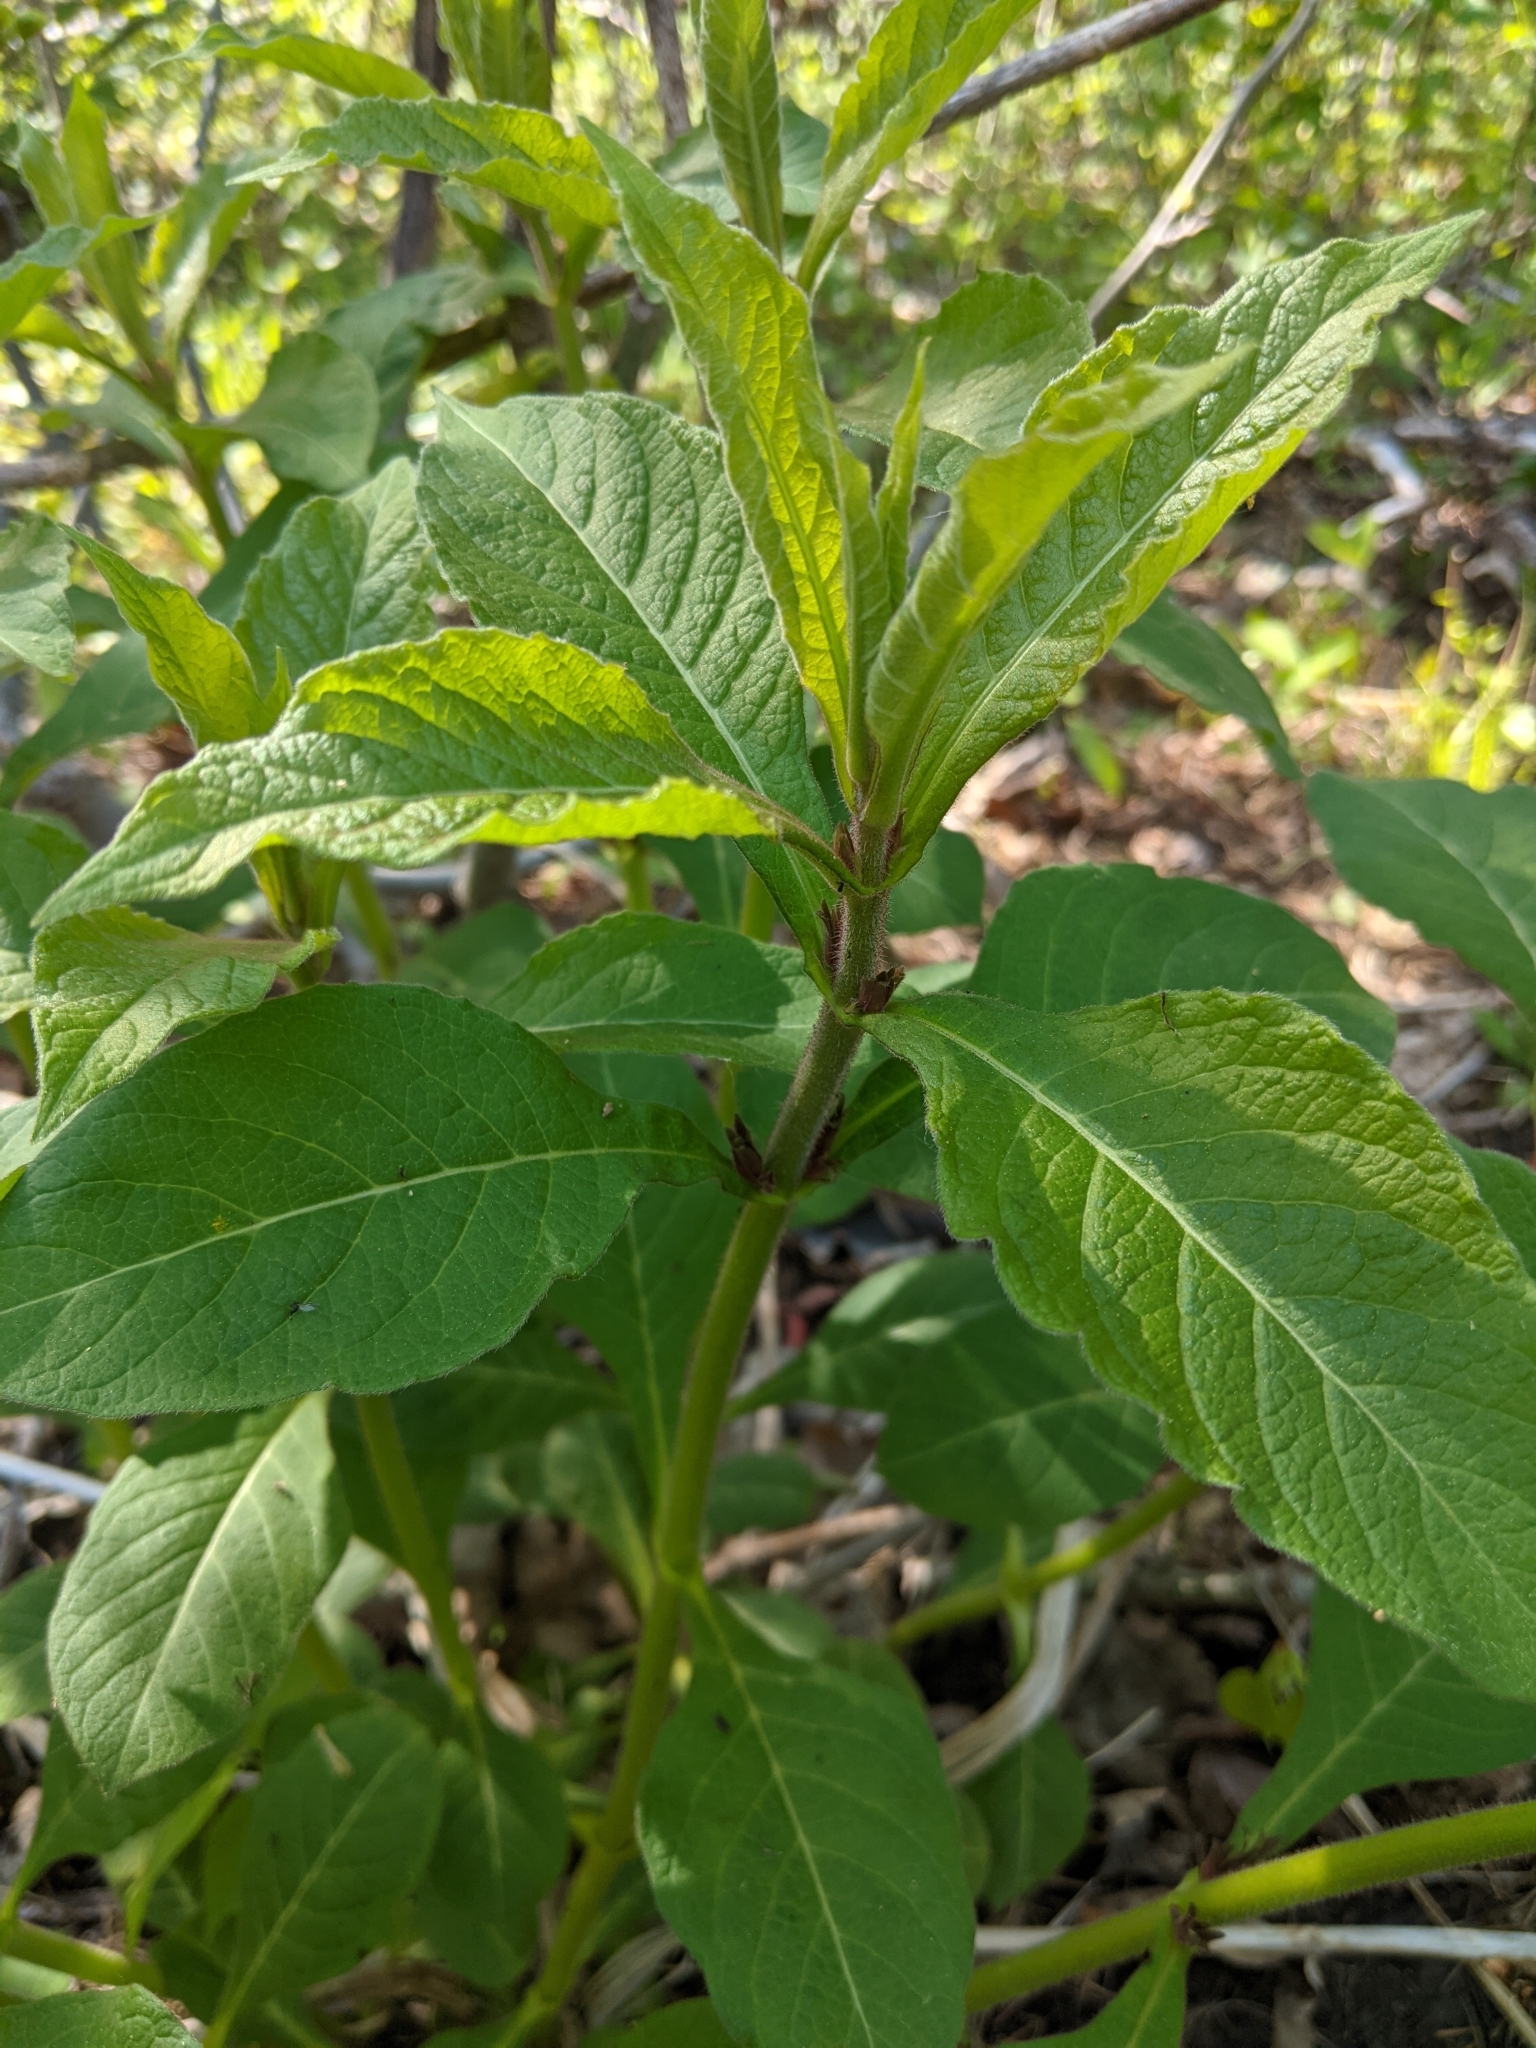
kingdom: Plantae
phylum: Tracheophyta
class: Magnoliopsida
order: Dipsacales
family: Caprifoliaceae
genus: Triosteum
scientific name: Triosteum aurantiacum
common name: Coffee tinker's-weed
